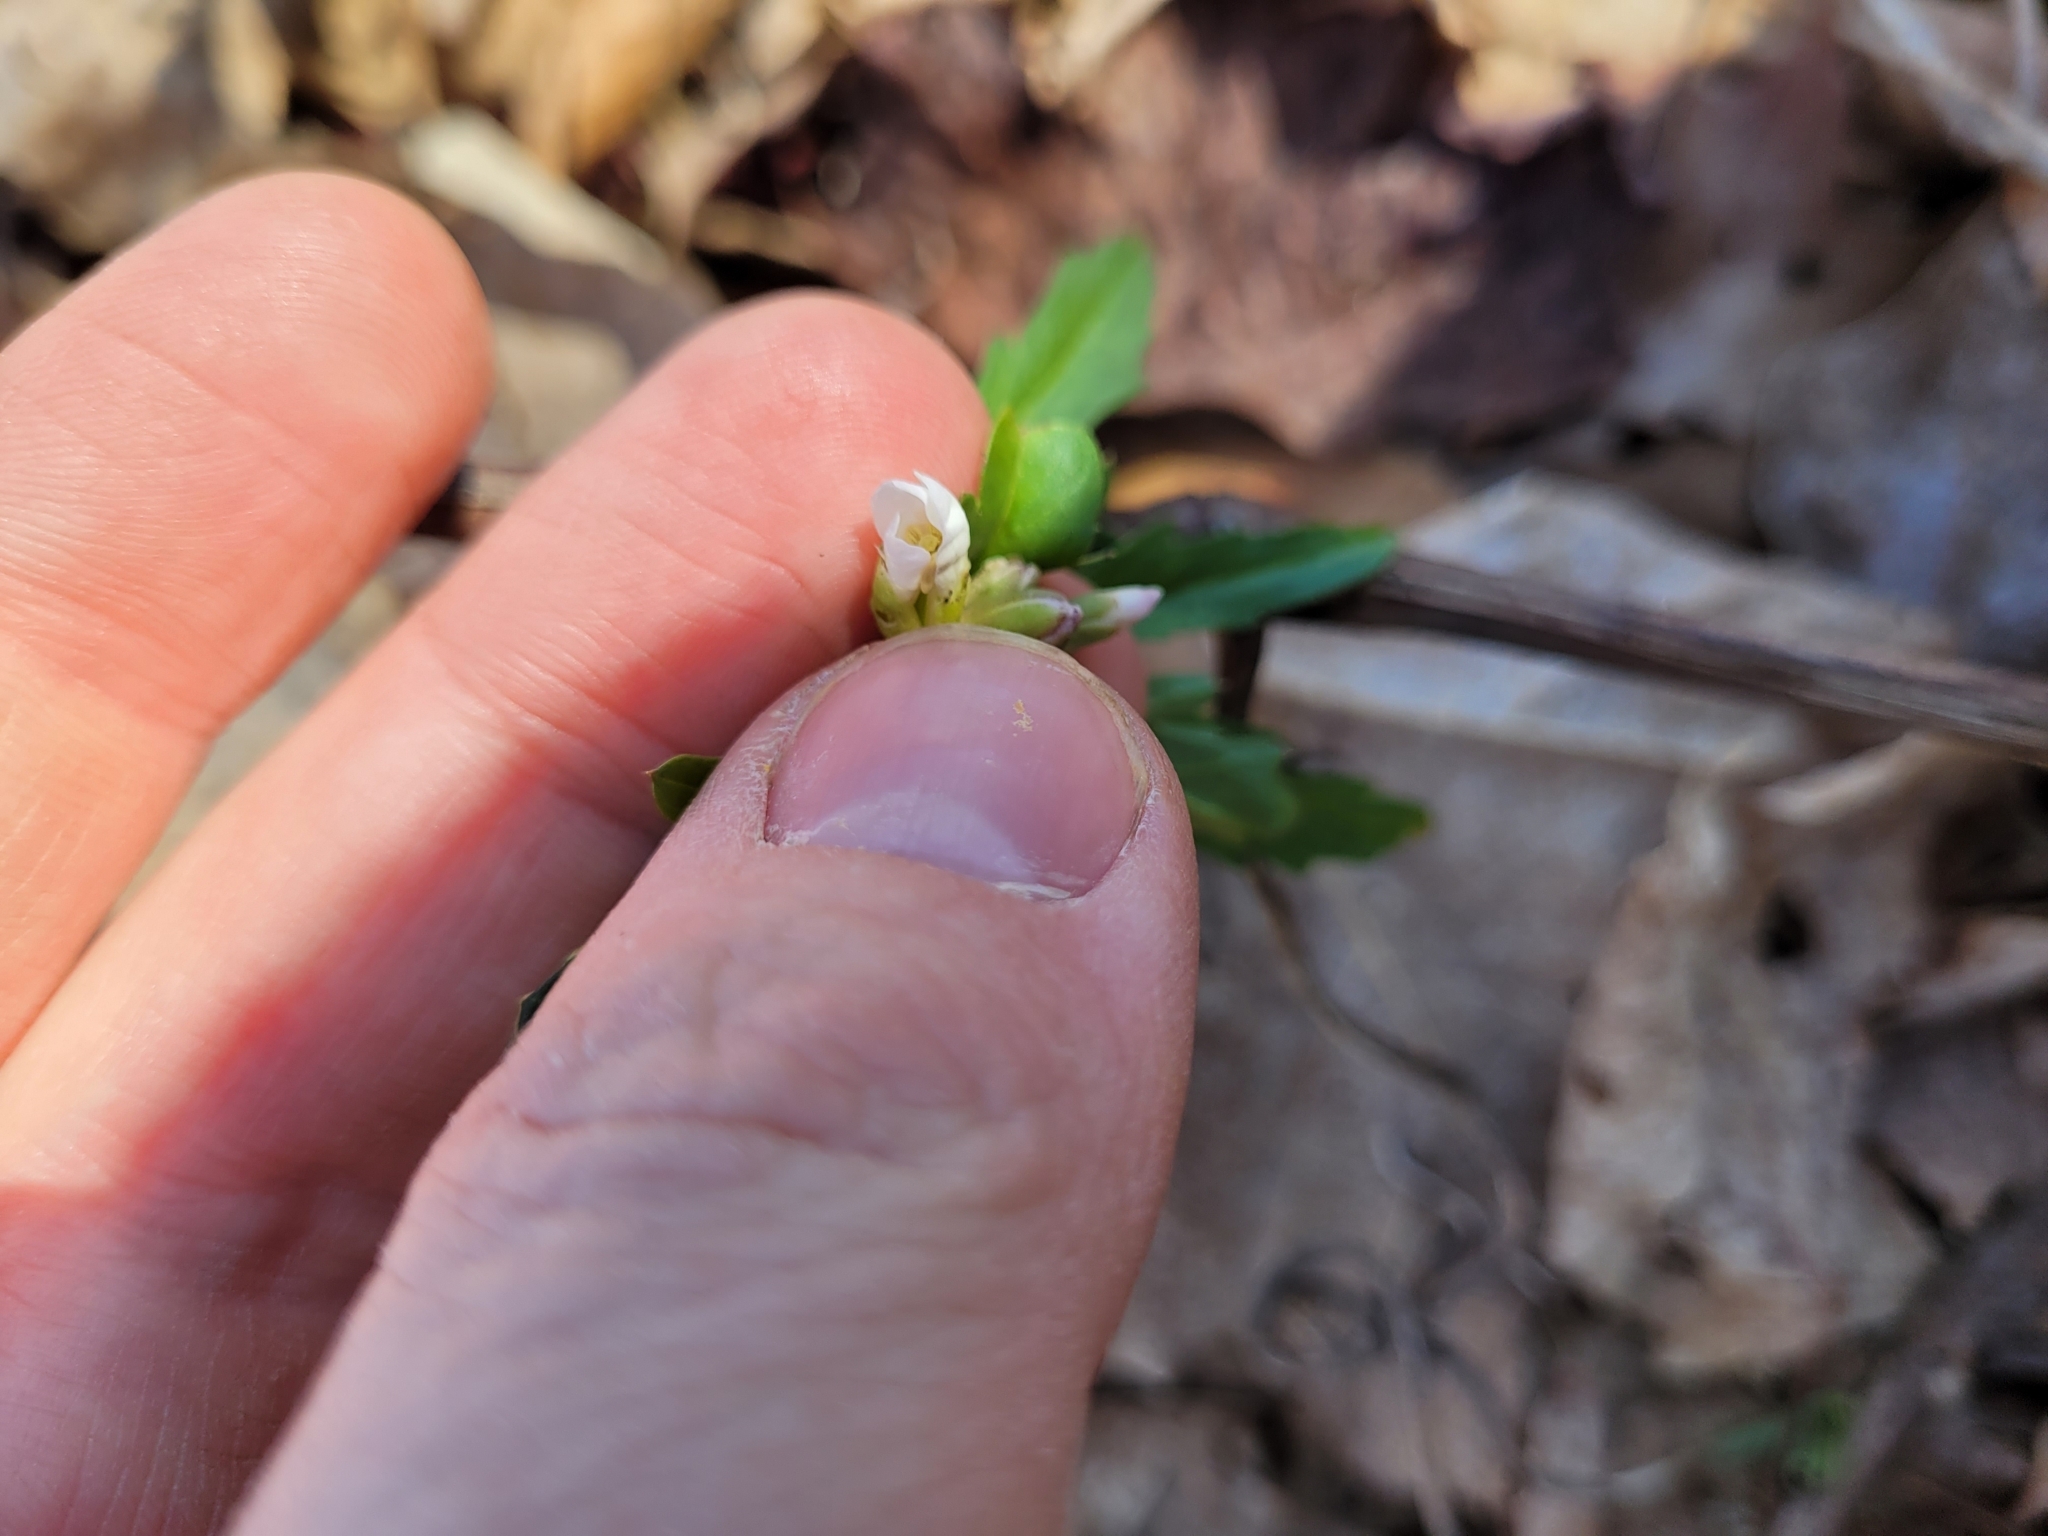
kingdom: Plantae
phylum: Tracheophyta
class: Magnoliopsida
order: Brassicales
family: Brassicaceae
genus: Cardamine
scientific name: Cardamine concatenata
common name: Cut-leaf toothcup
